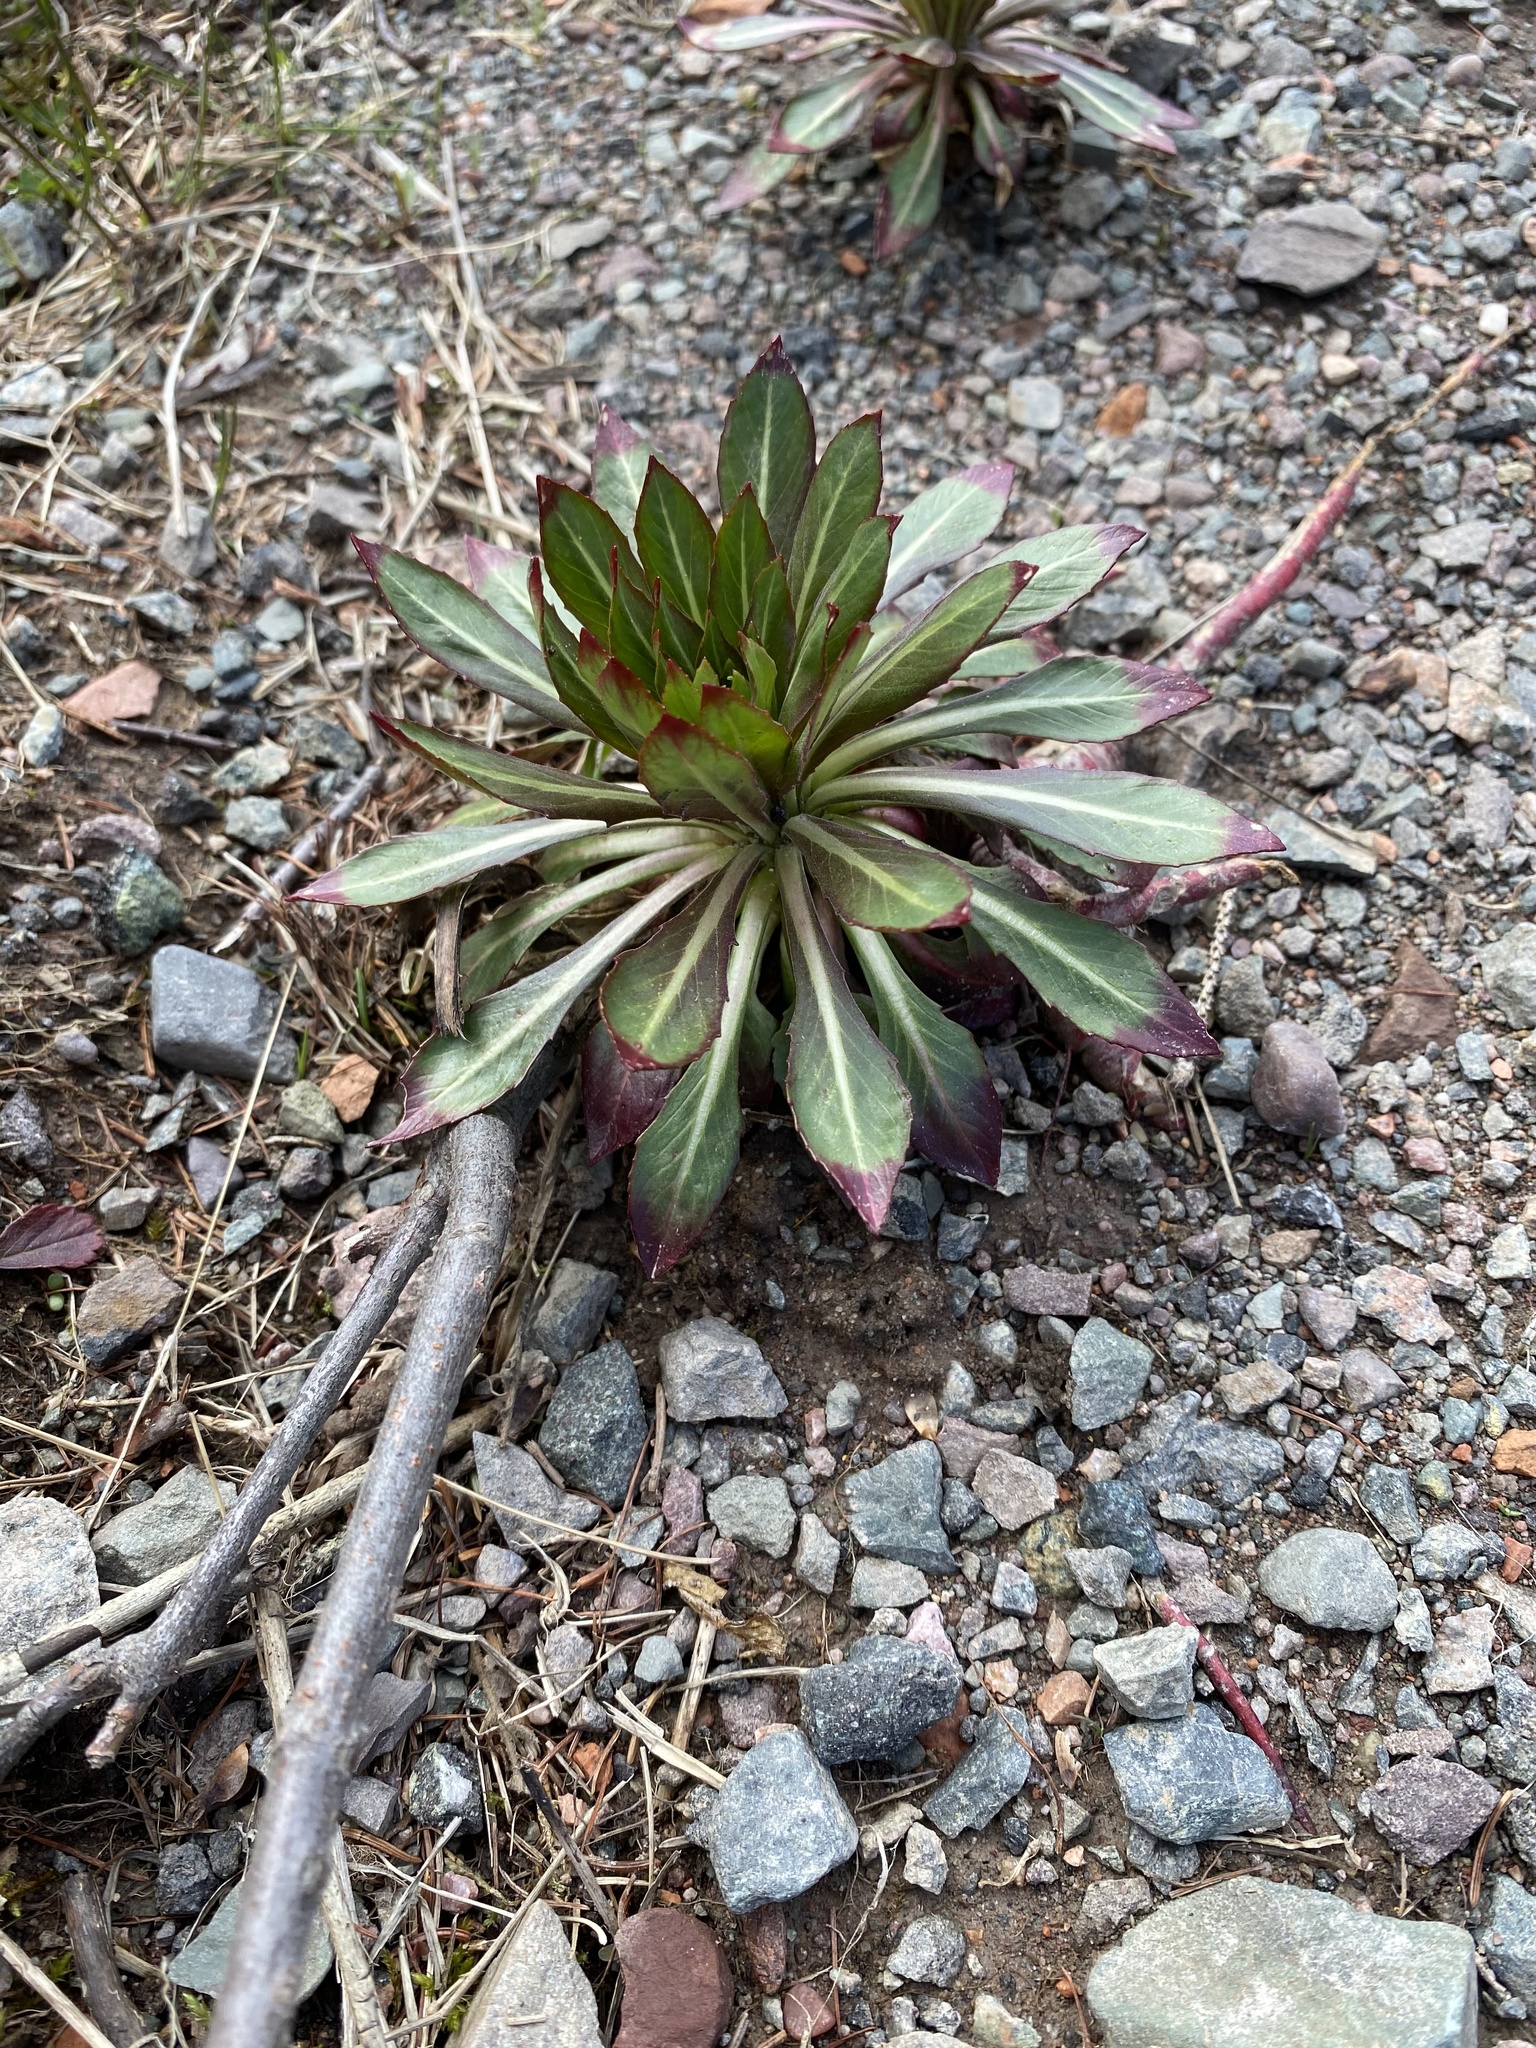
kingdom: Plantae
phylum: Tracheophyta
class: Magnoliopsida
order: Myrtales
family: Onagraceae
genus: Oenothera
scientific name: Oenothera biennis
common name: Common evening-primrose
